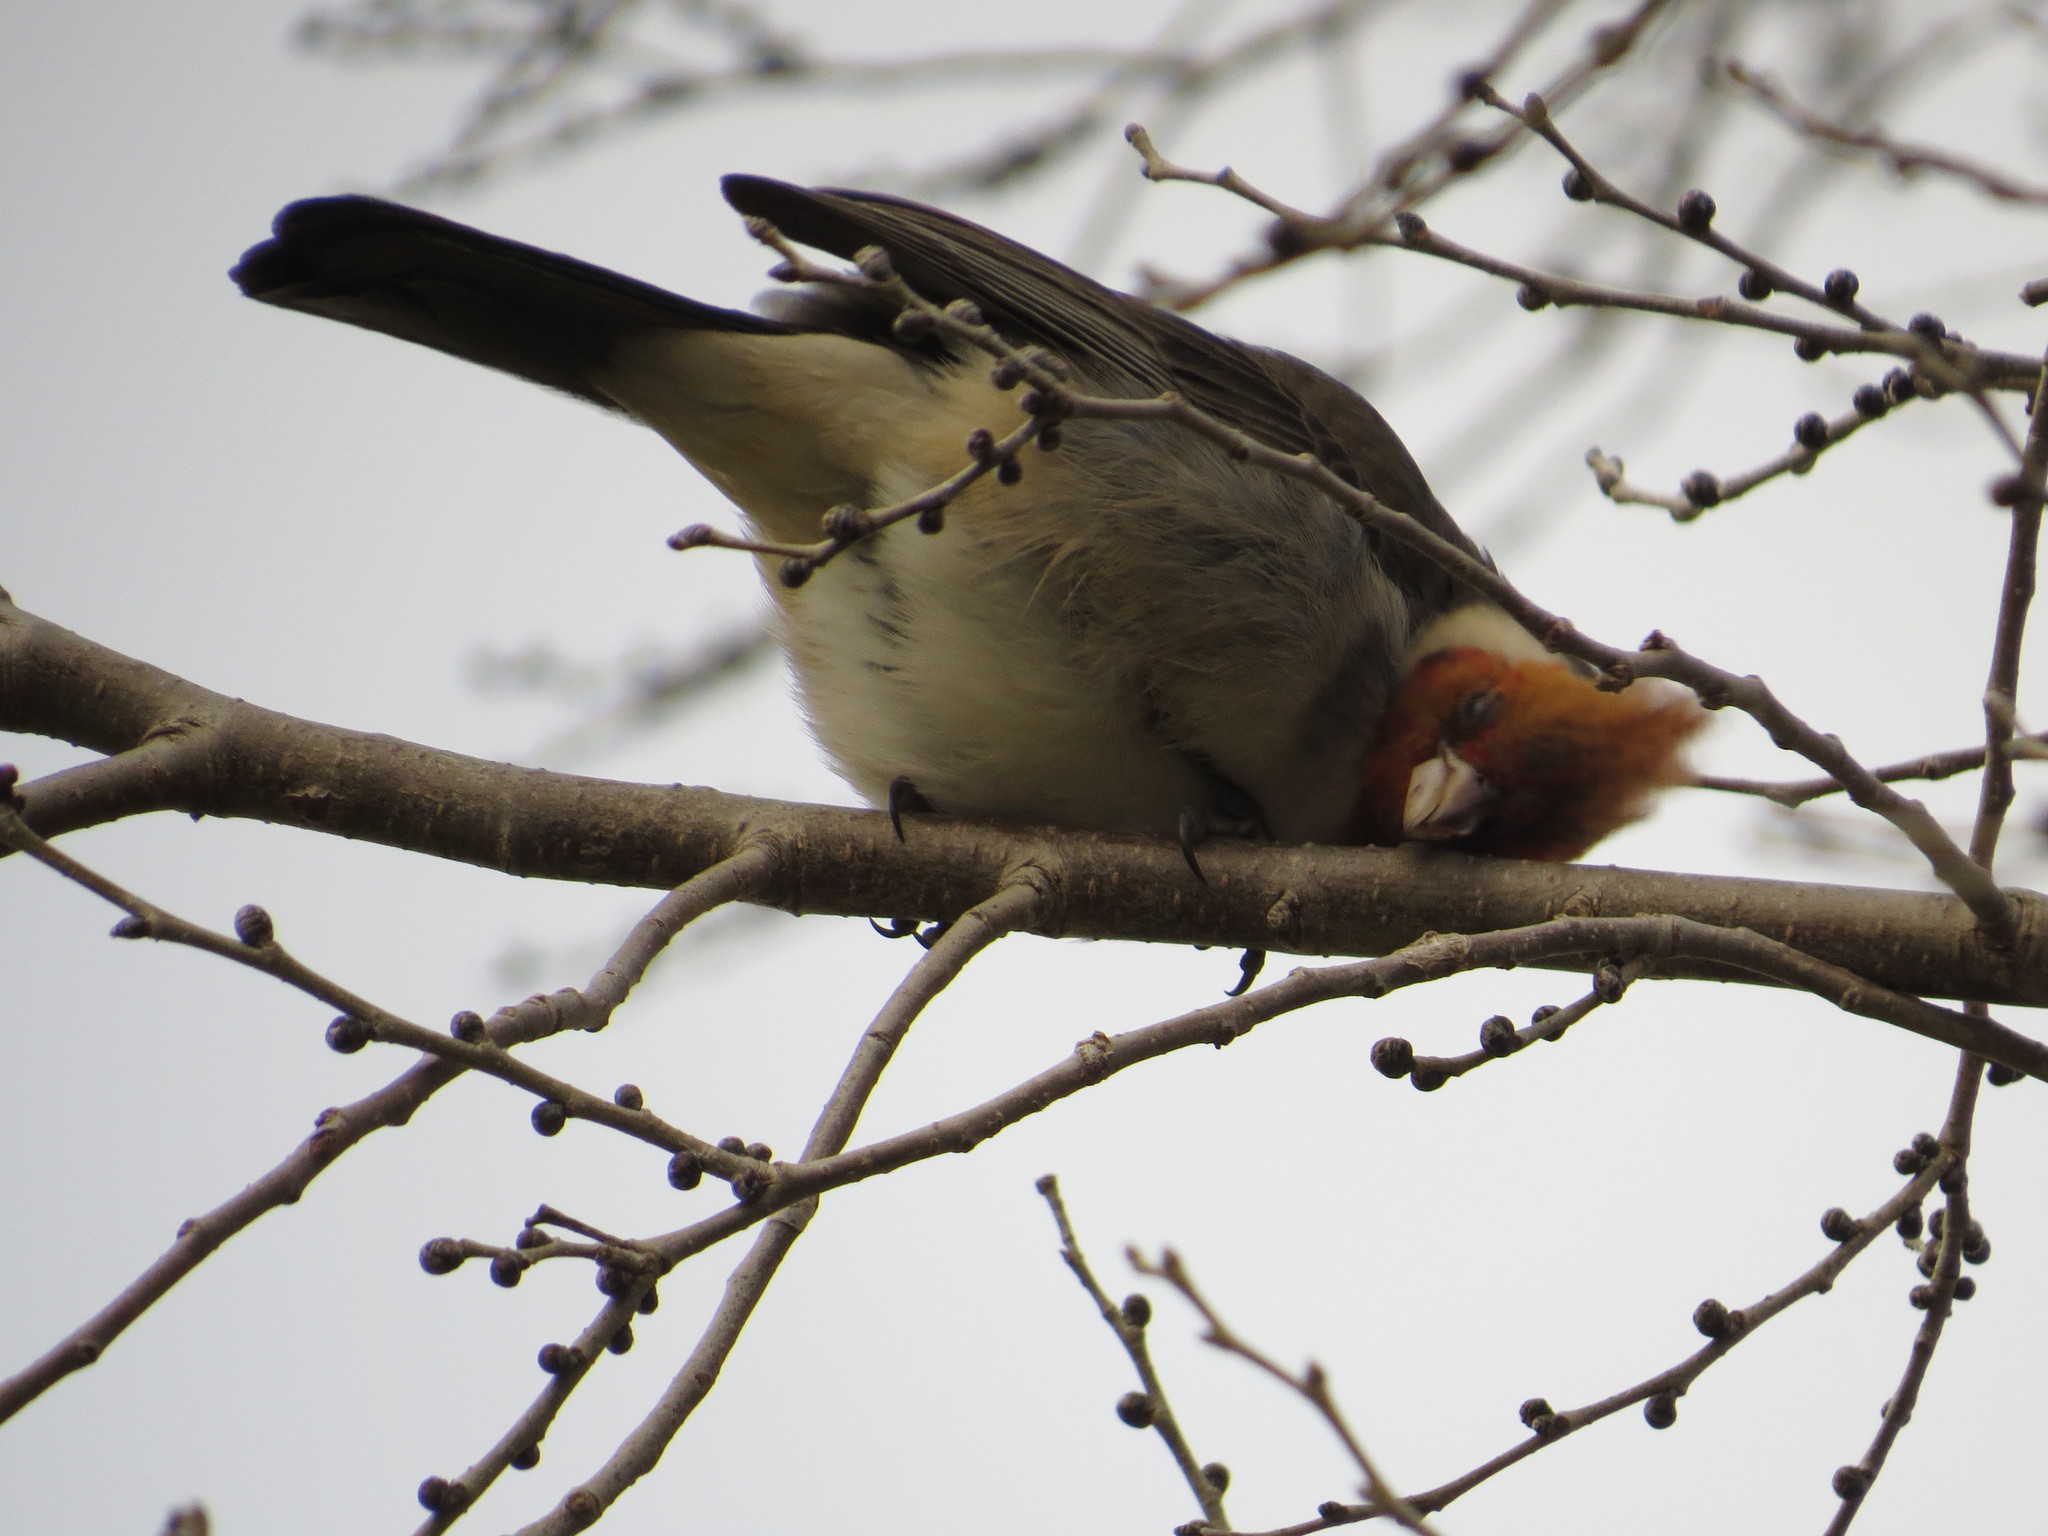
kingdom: Animalia
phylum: Chordata
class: Aves
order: Passeriformes
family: Thraupidae
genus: Paroaria
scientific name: Paroaria coronata
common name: Red-crested cardinal
